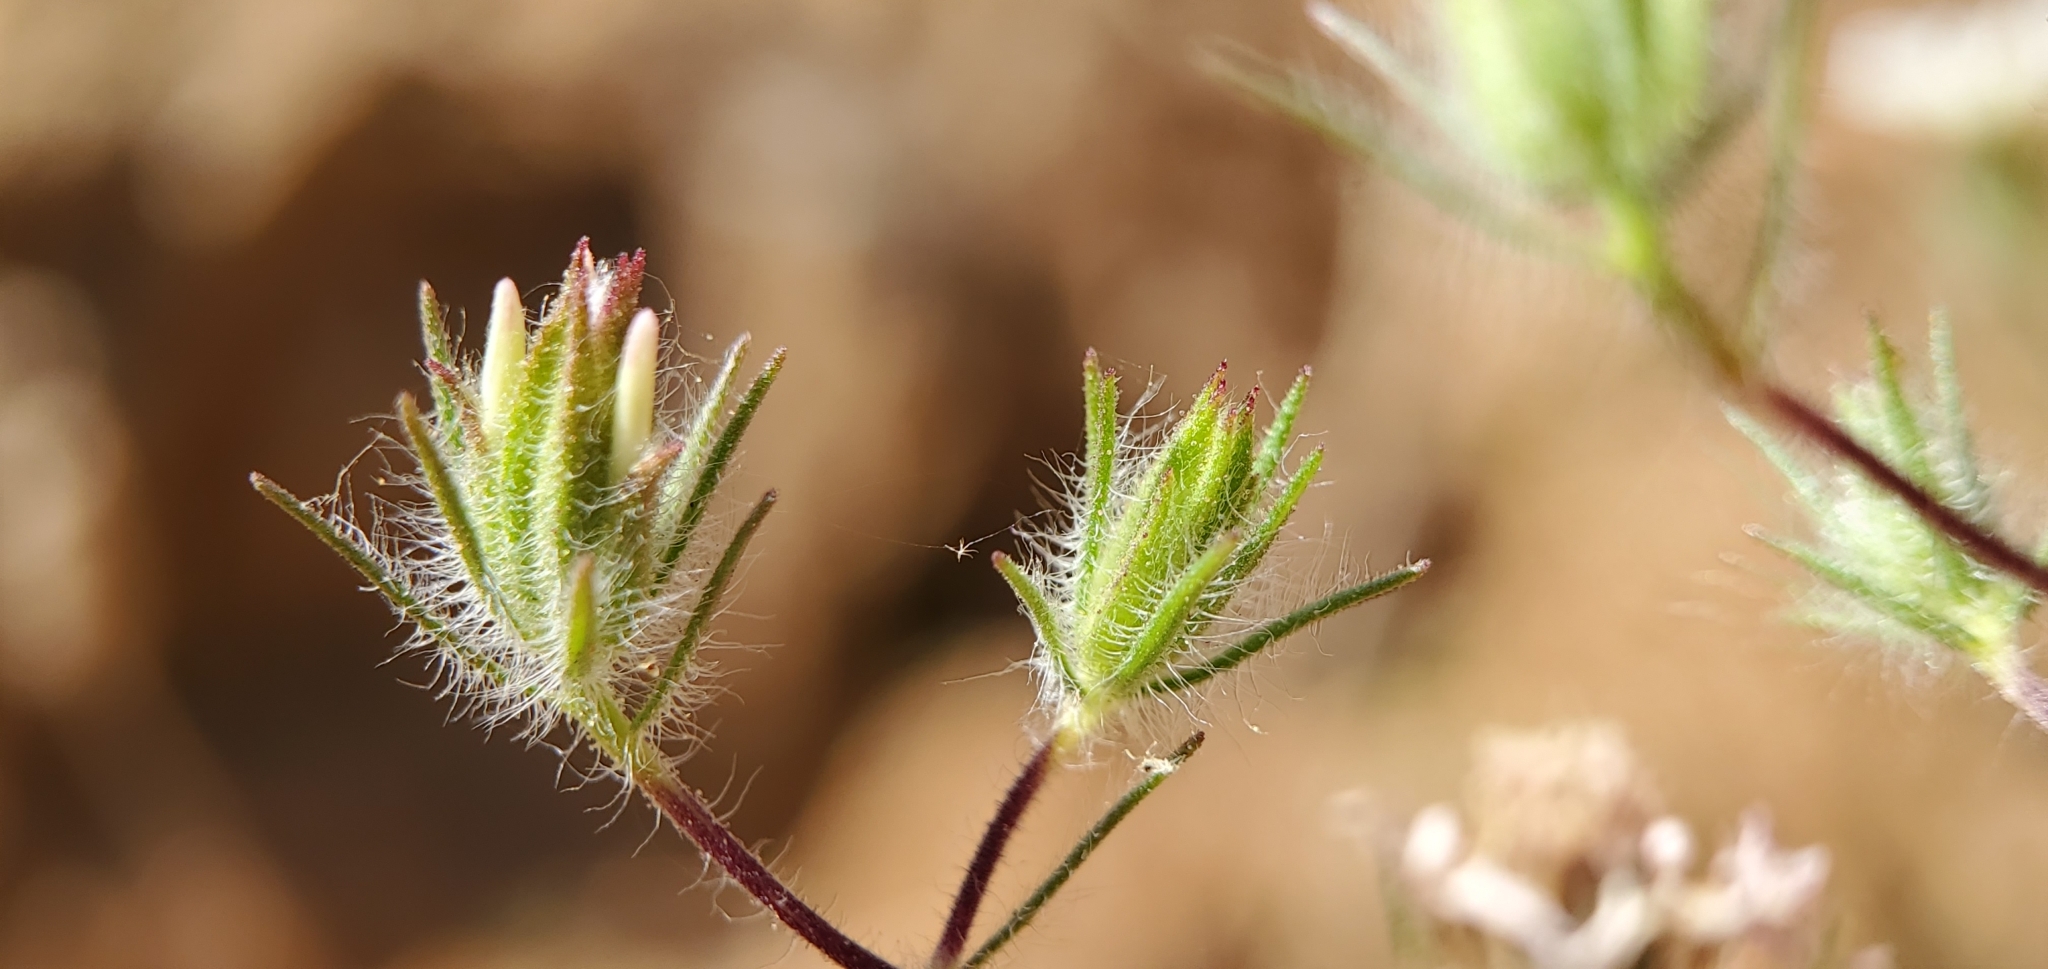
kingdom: Plantae
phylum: Tracheophyta
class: Magnoliopsida
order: Asterales
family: Asteraceae
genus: Osmadenia
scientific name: Osmadenia tenella
